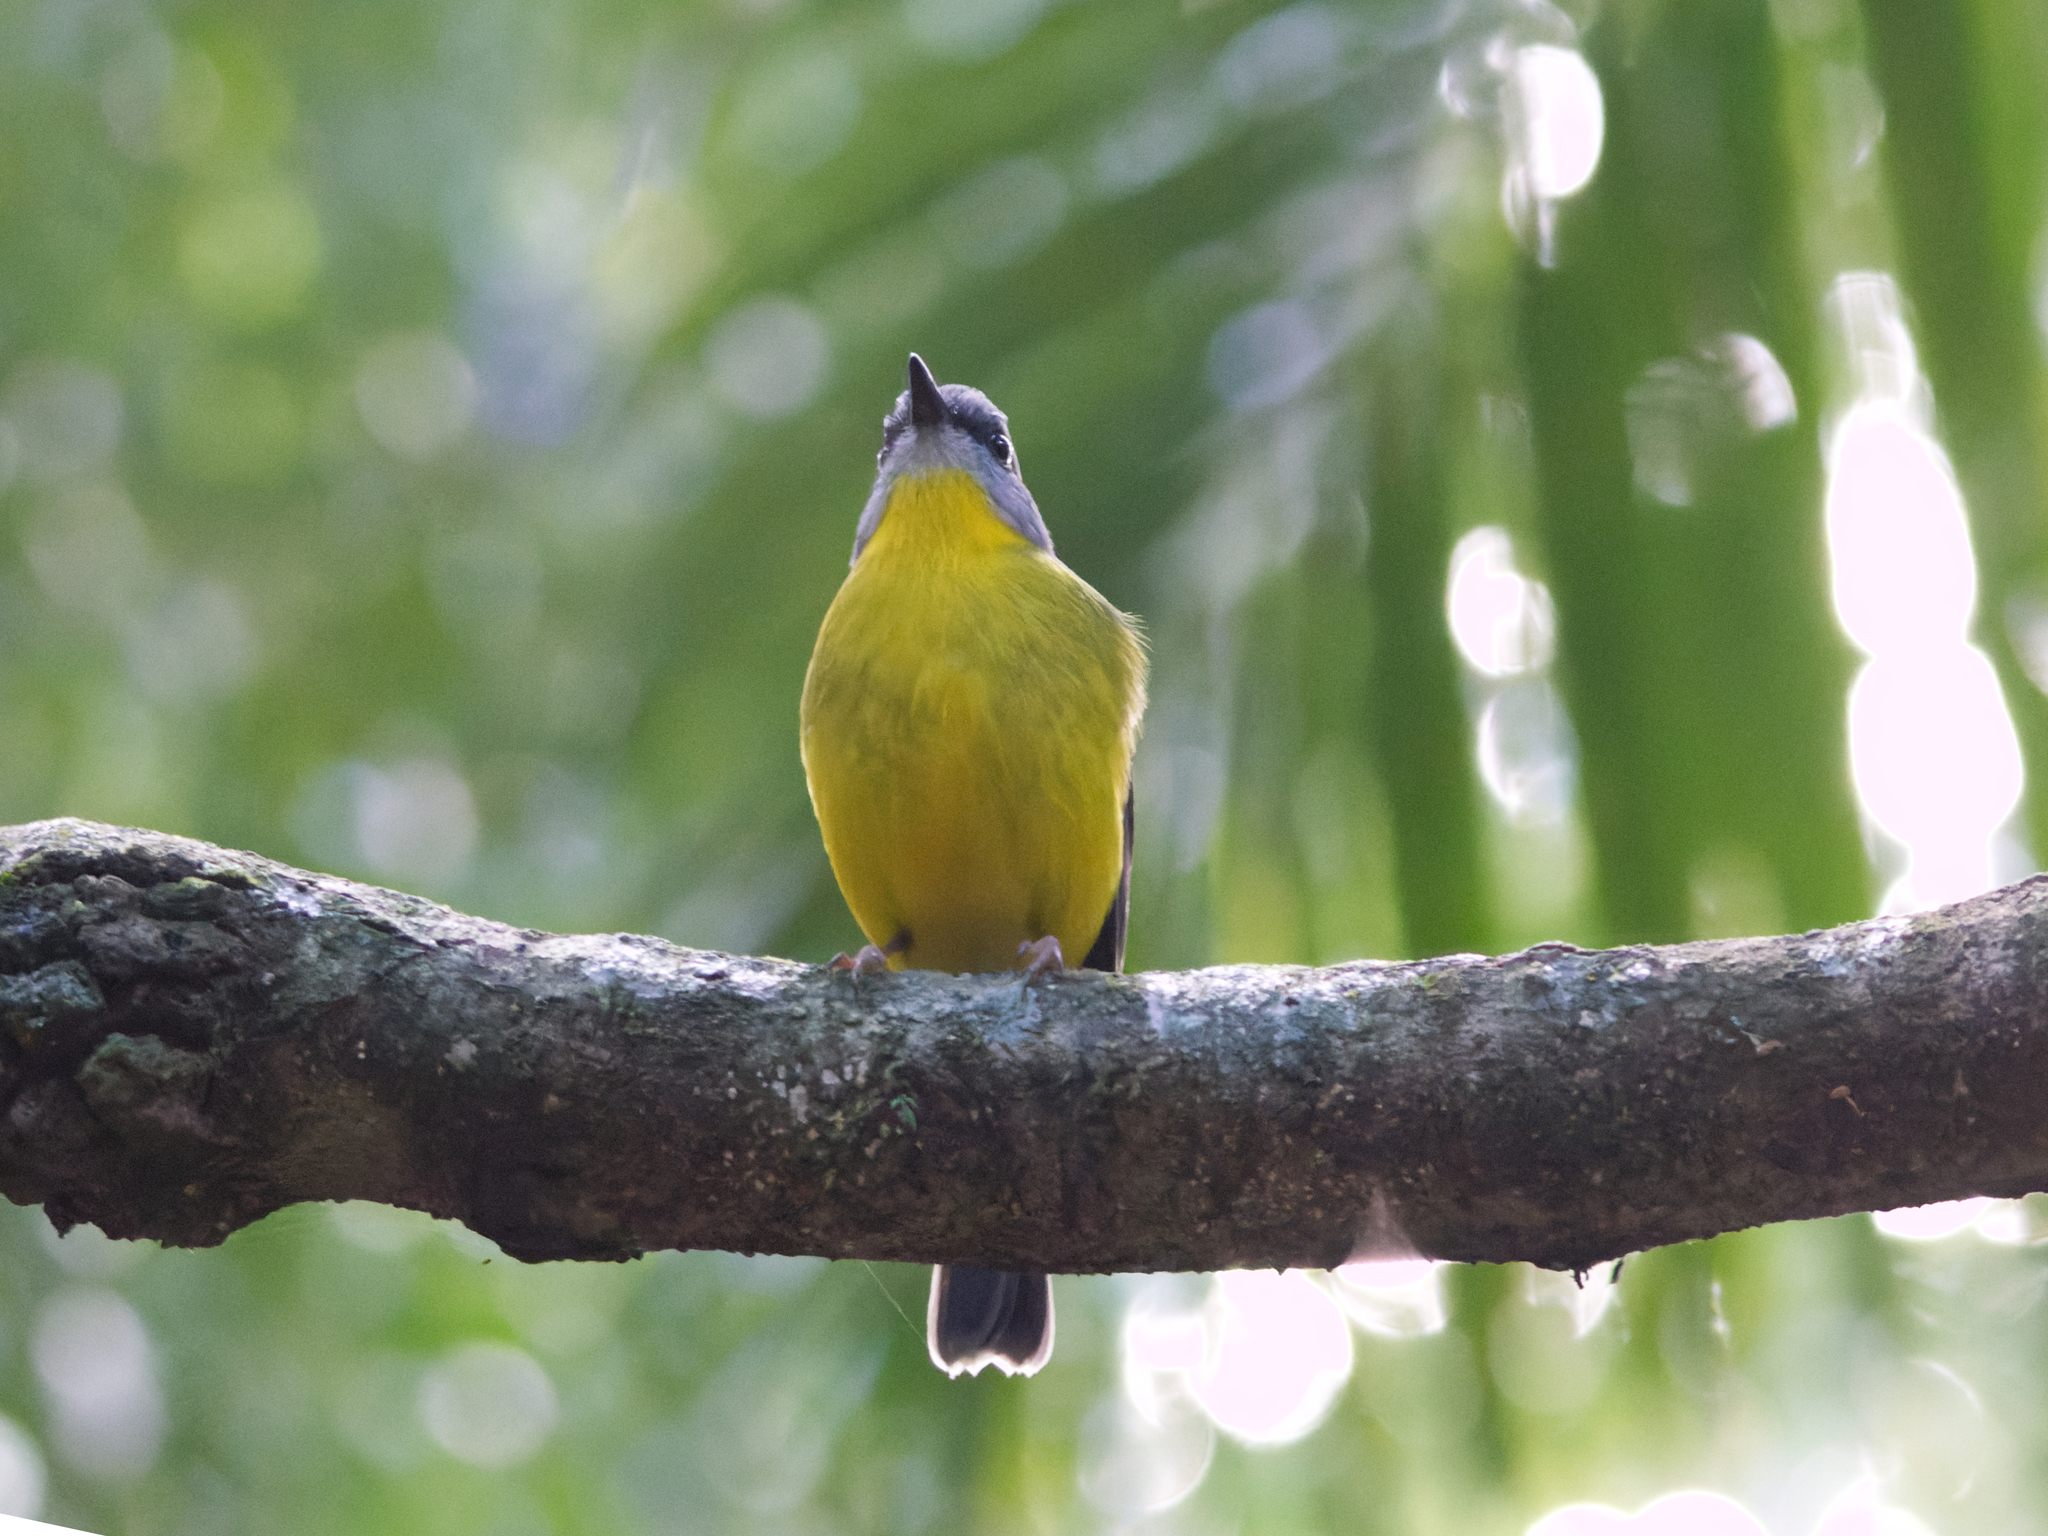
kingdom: Animalia
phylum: Chordata
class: Aves
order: Passeriformes
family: Petroicidae
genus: Eopsaltria
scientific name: Eopsaltria australis
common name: Eastern yellow robin
